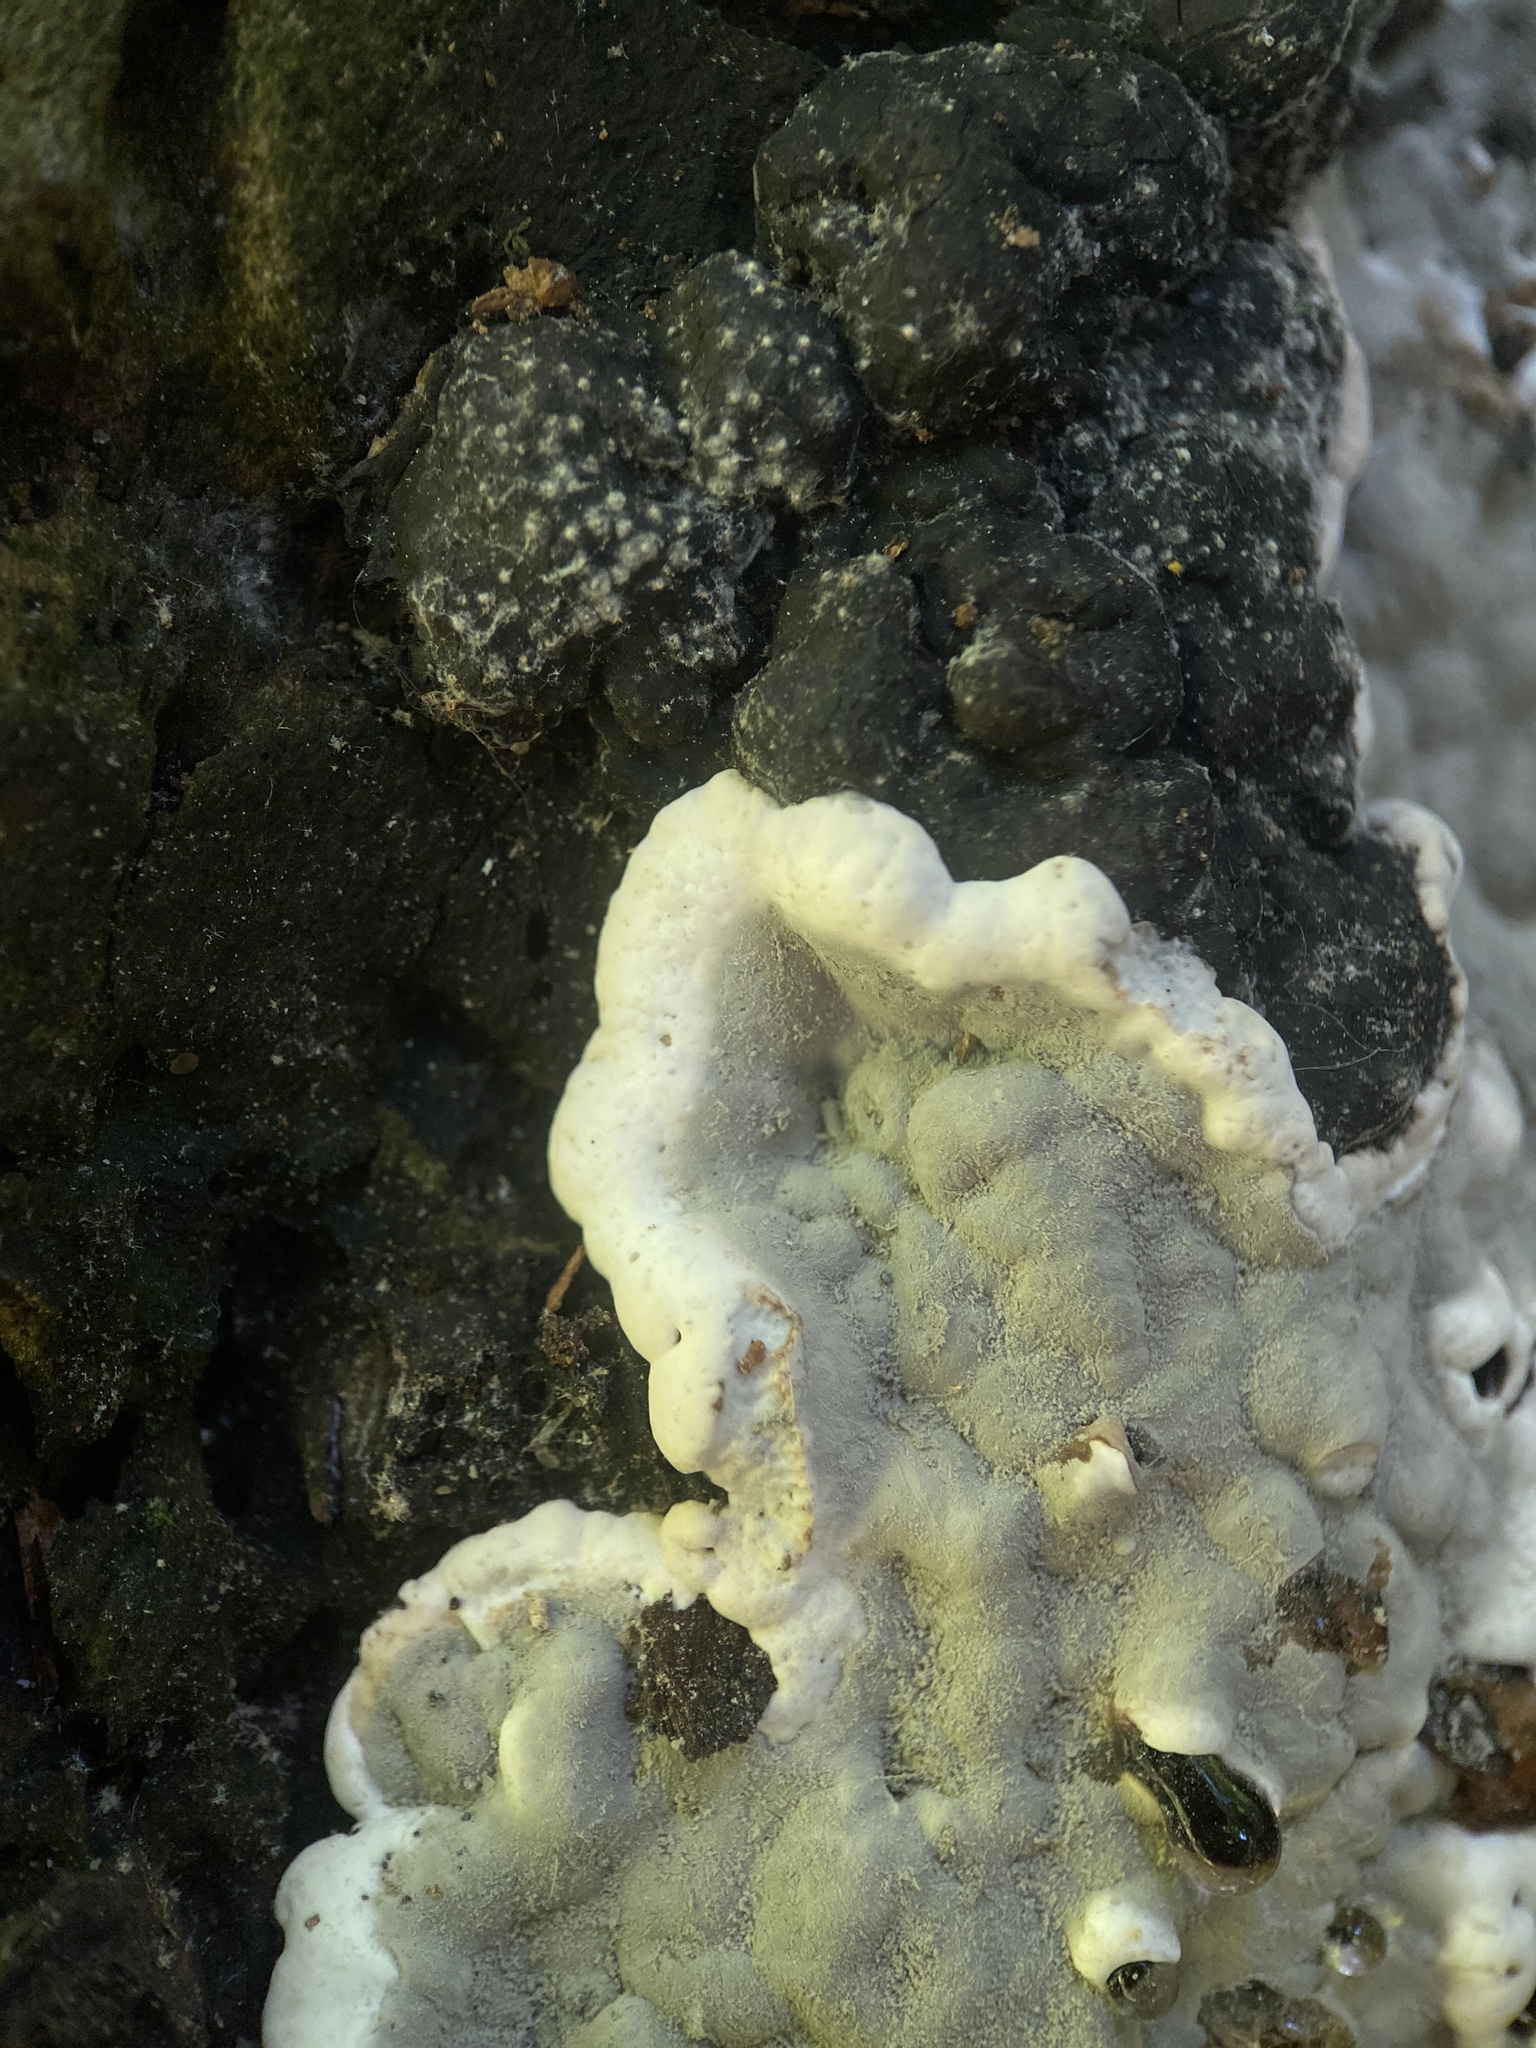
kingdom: Fungi
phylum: Ascomycota
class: Sordariomycetes
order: Xylariales
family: Xylariaceae
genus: Kretzschmaria
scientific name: Kretzschmaria deusta
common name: Brittle cinder
